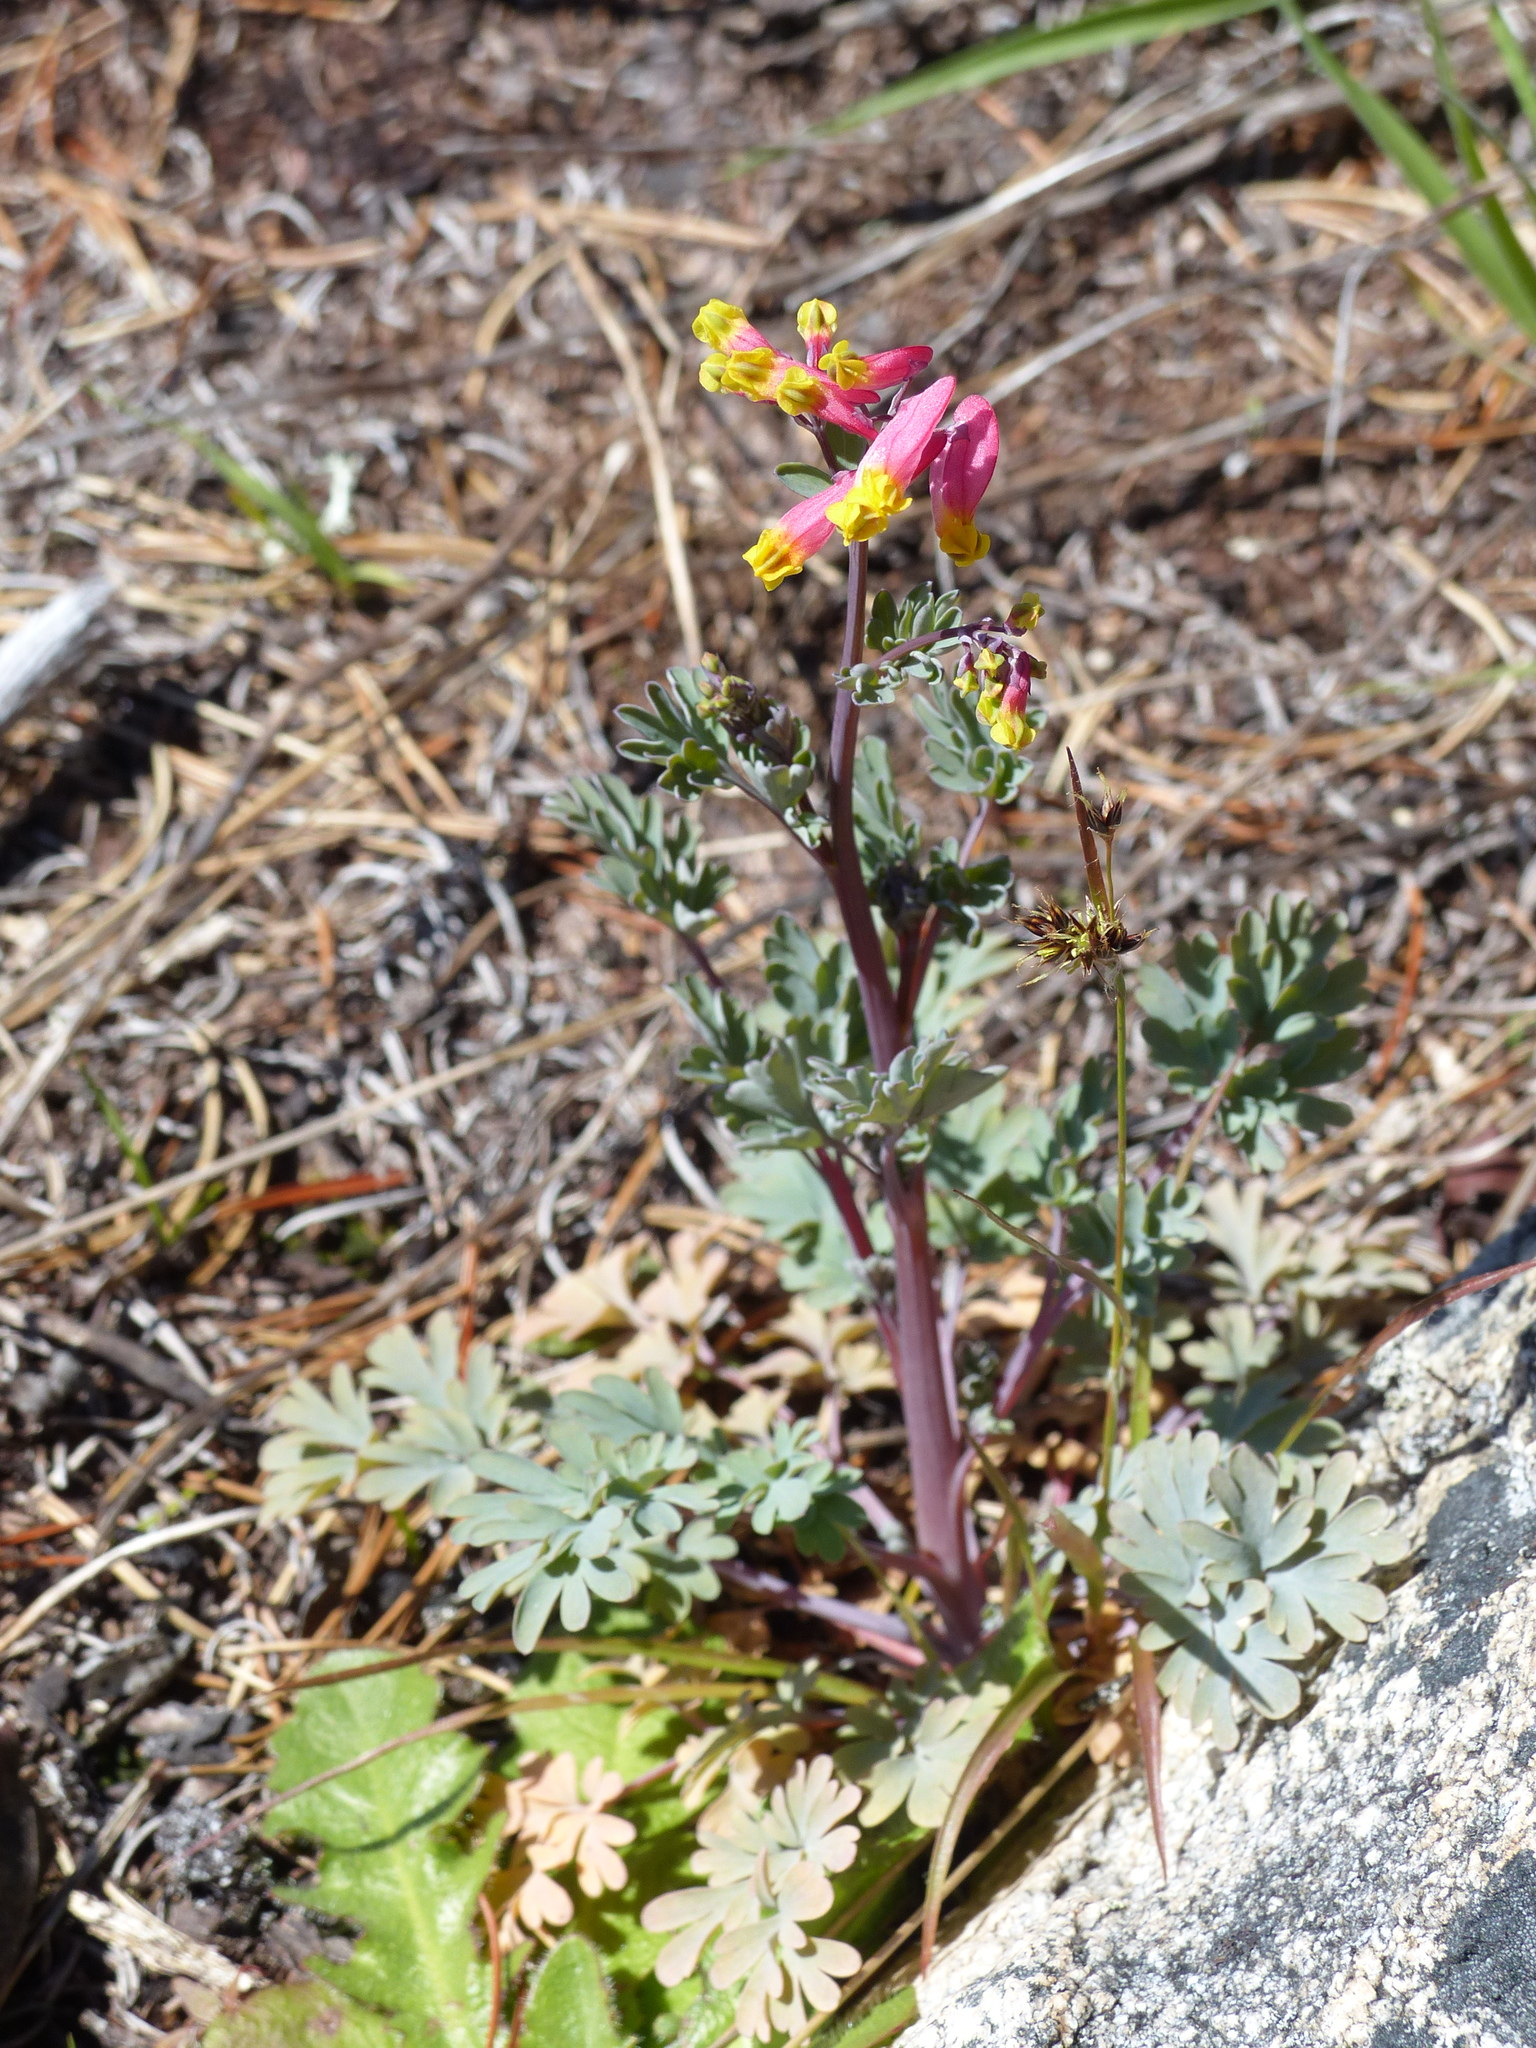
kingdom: Plantae
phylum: Tracheophyta
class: Magnoliopsida
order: Ranunculales
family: Papaveraceae
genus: Capnoides
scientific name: Capnoides sempervirens
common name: Rock harlequin
